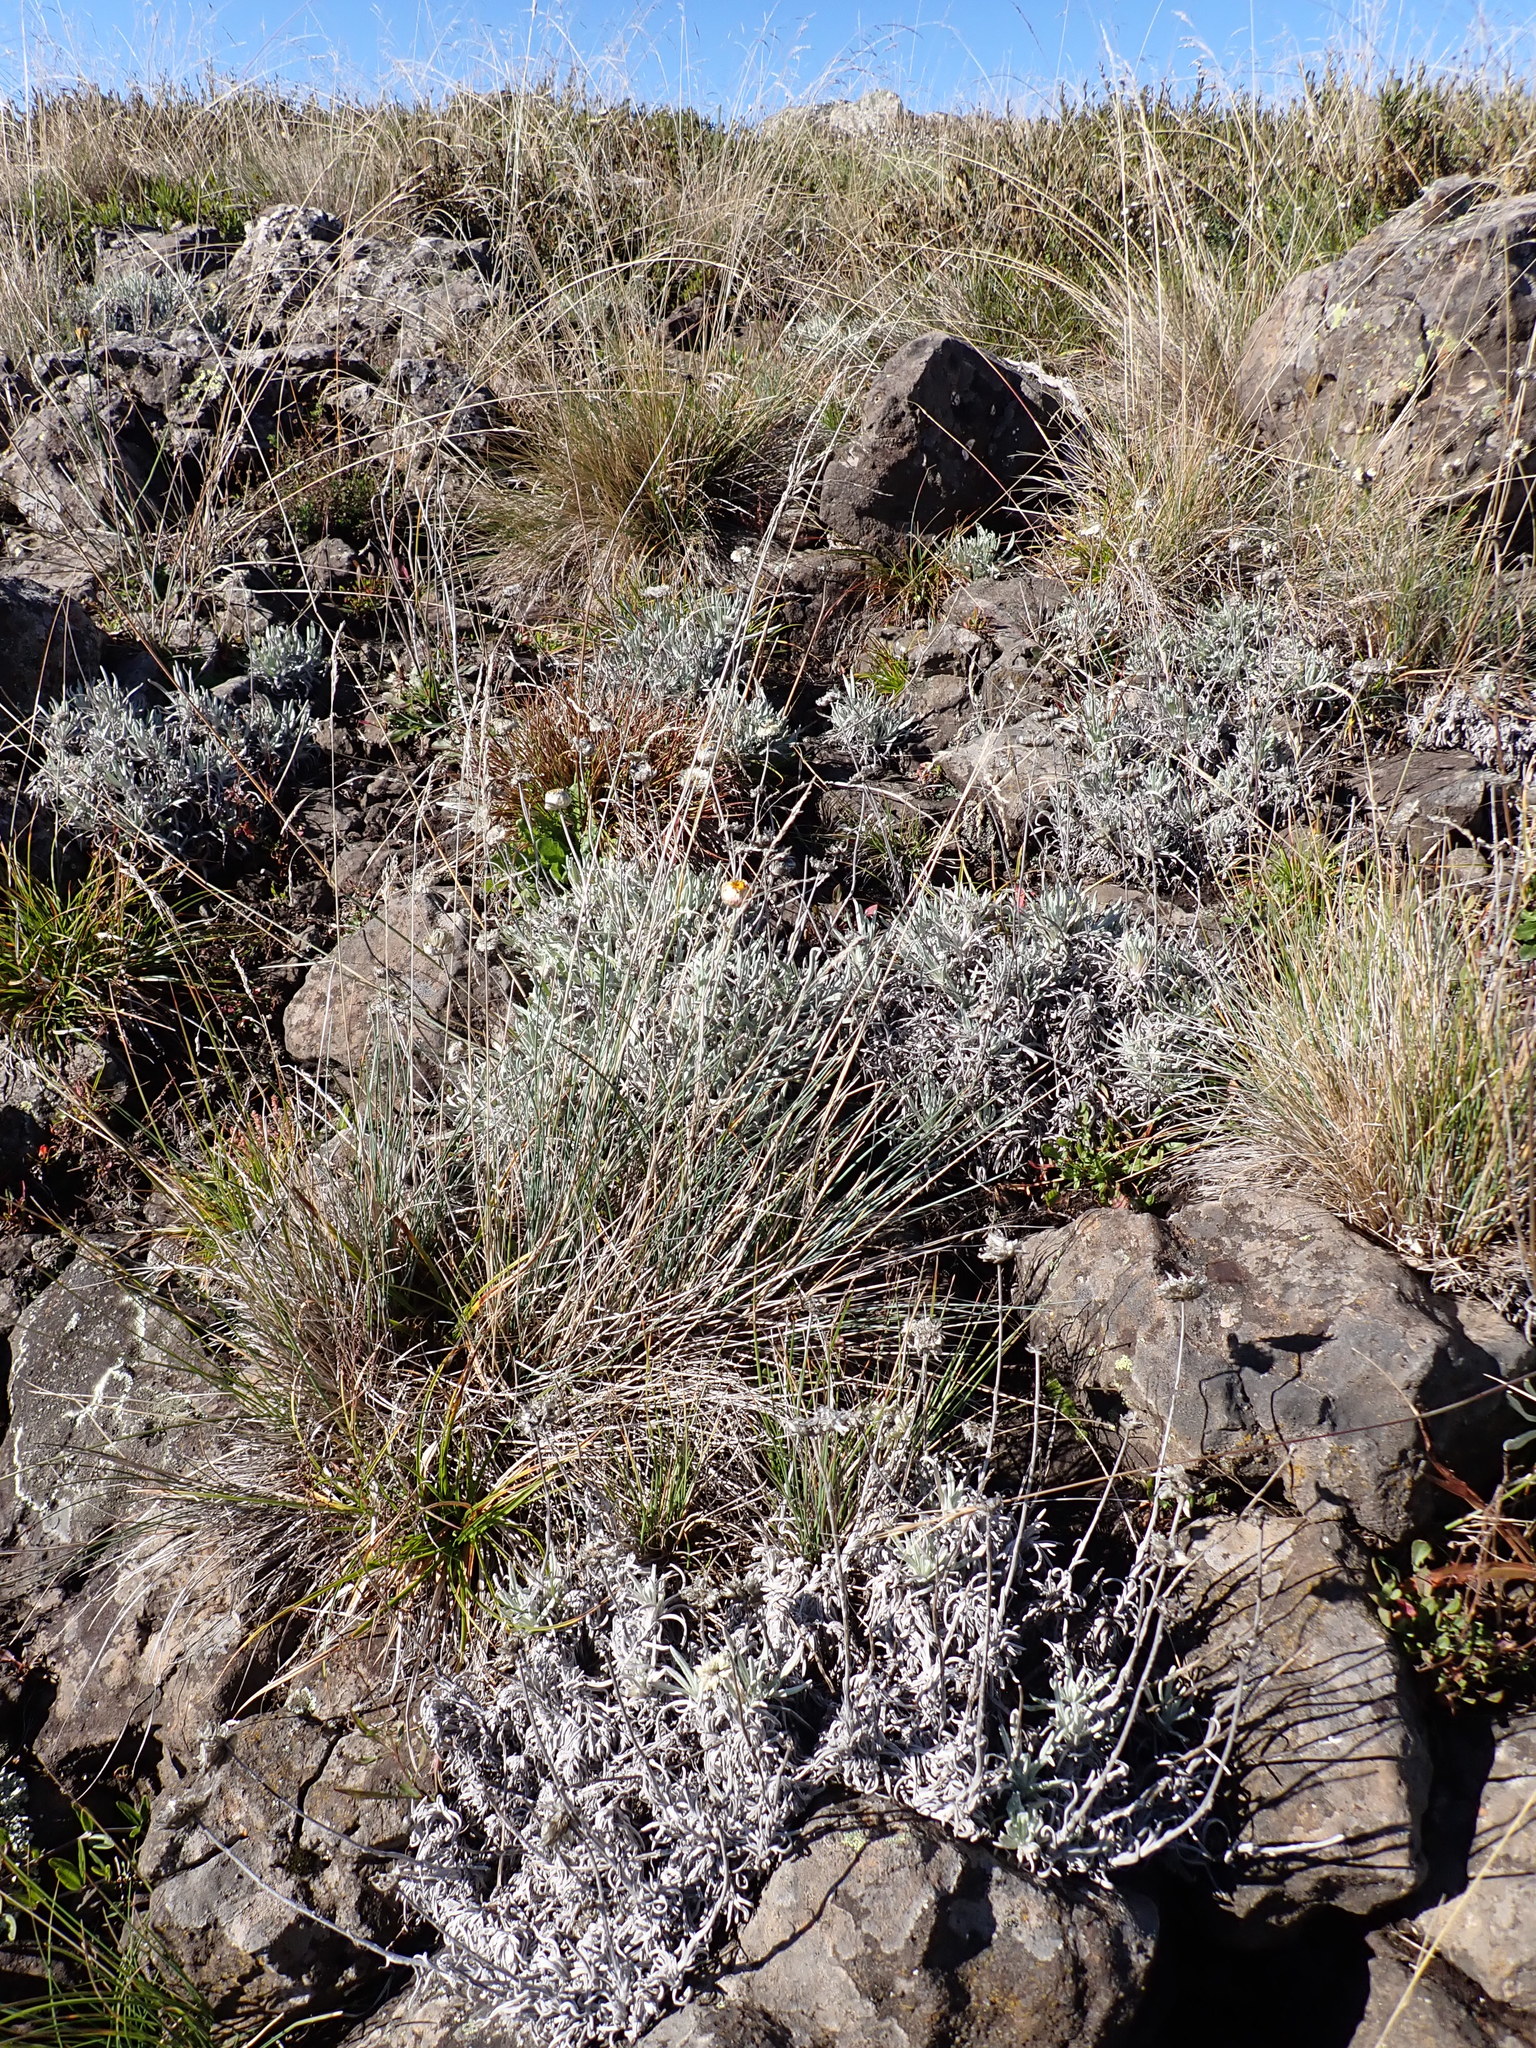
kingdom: Plantae
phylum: Tracheophyta
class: Magnoliopsida
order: Asterales
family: Asteraceae
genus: Leucochrysum
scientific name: Leucochrysum albicans
